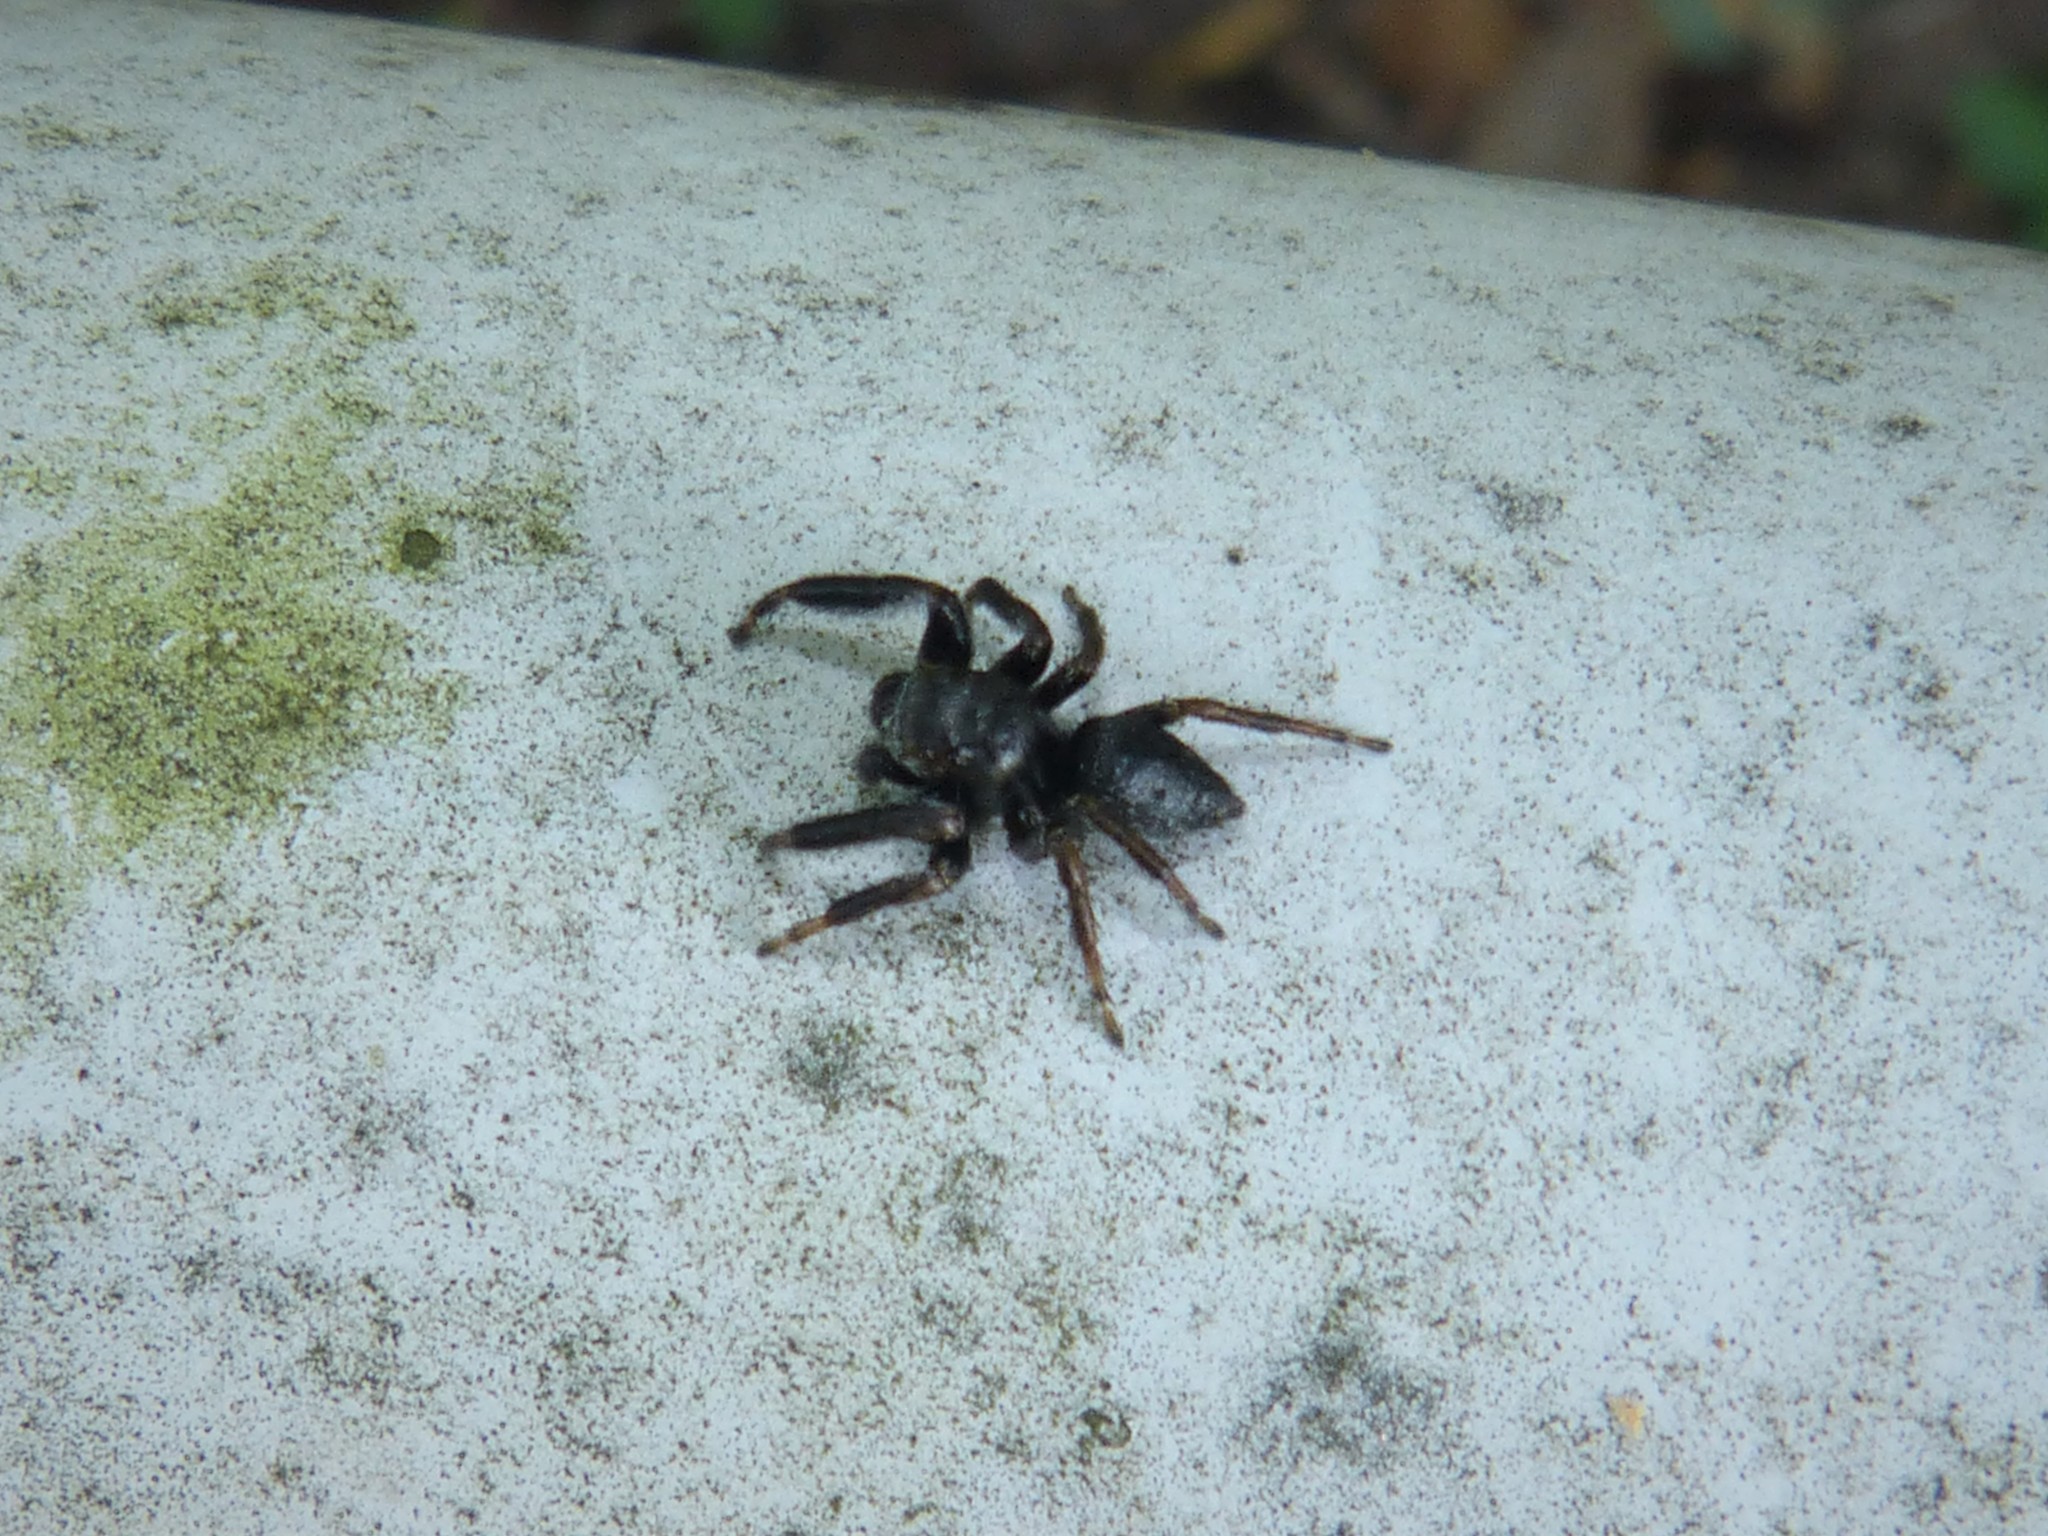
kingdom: Animalia
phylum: Arthropoda
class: Arachnida
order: Araneae
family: Salticidae
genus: Evarcha
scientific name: Evarcha arcuata
